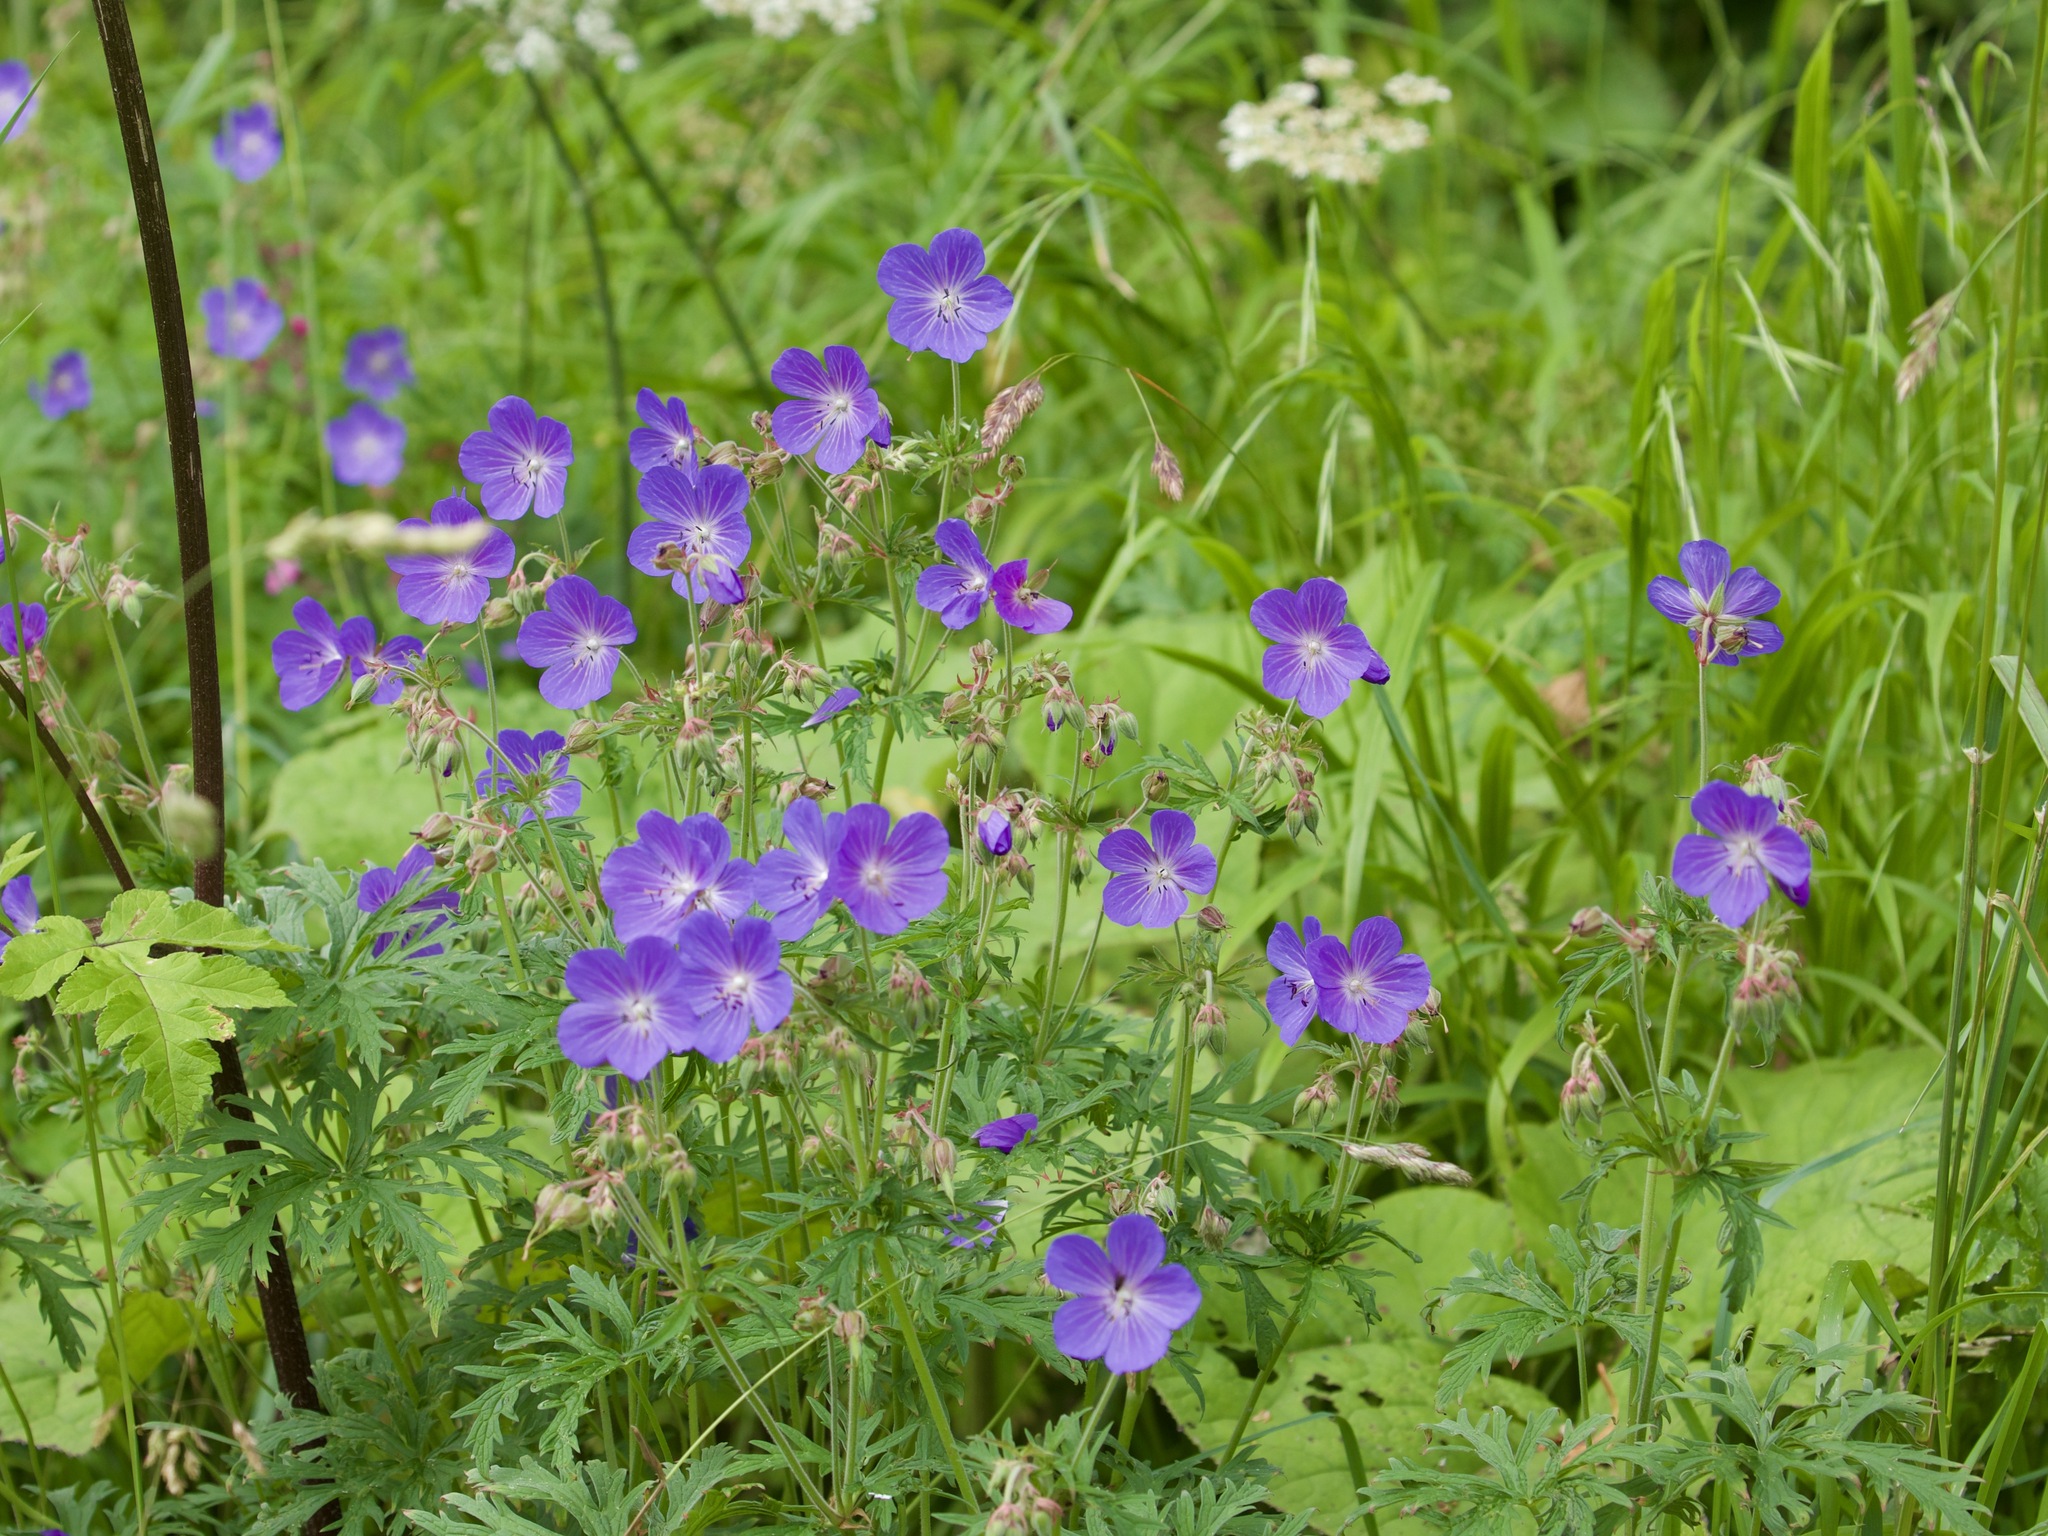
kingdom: Plantae
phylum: Tracheophyta
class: Magnoliopsida
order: Geraniales
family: Geraniaceae
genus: Geranium
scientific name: Geranium pratense
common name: Meadow crane's-bill
